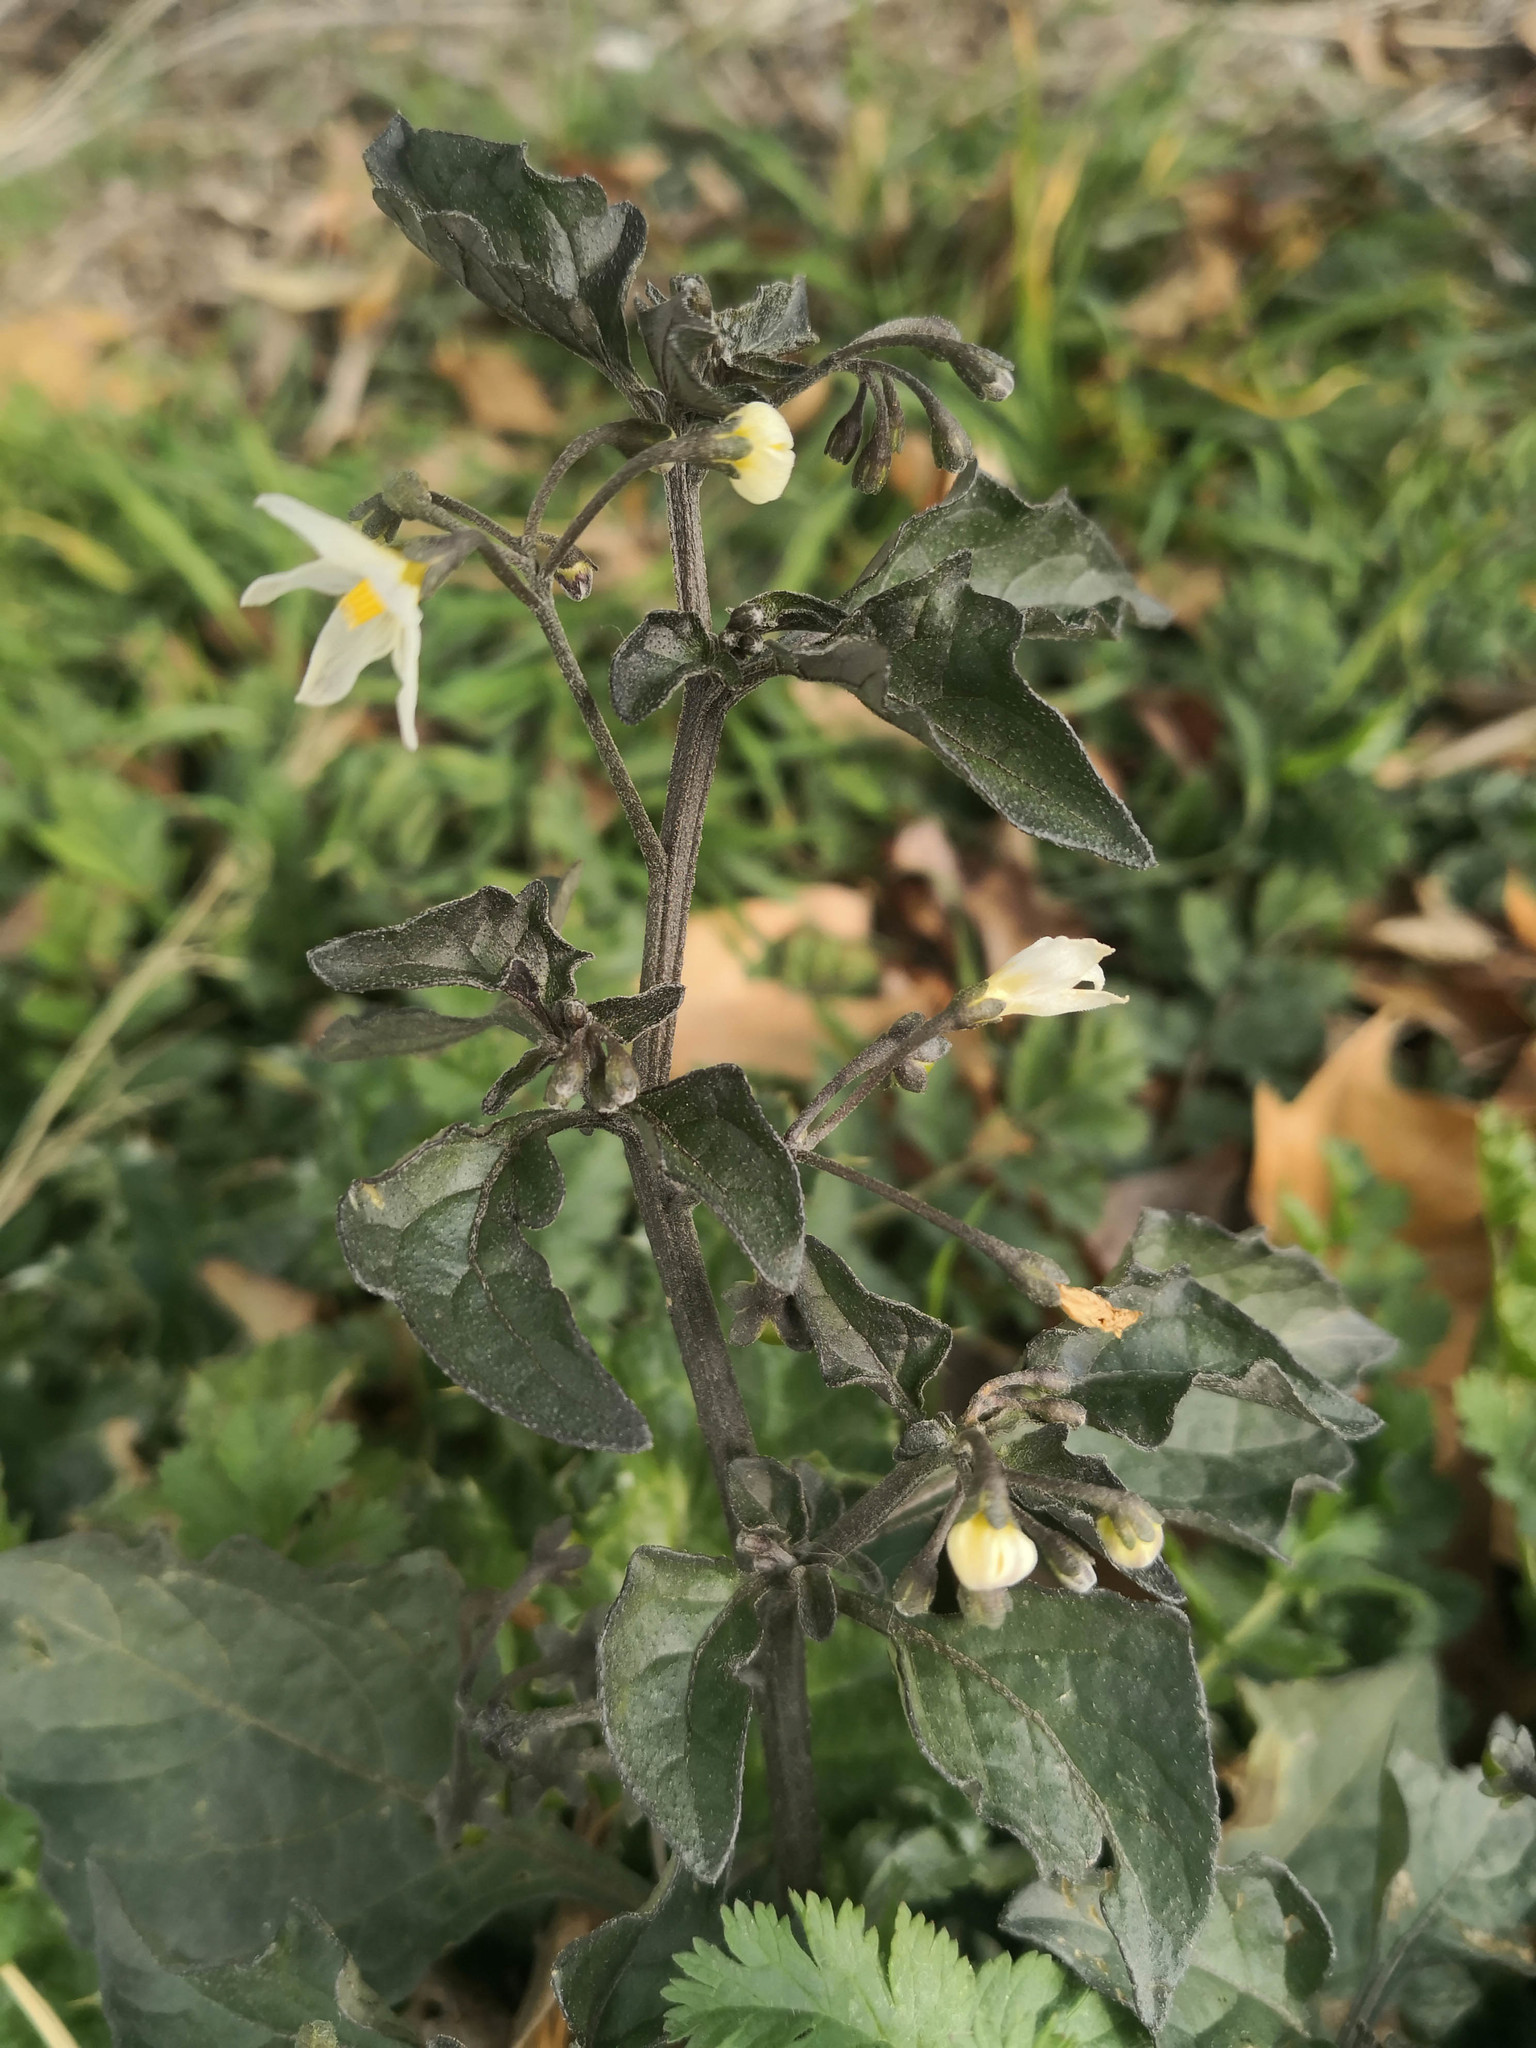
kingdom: Plantae
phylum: Tracheophyta
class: Magnoliopsida
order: Solanales
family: Solanaceae
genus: Solanum
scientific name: Solanum nigrum
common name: Black nightshade
